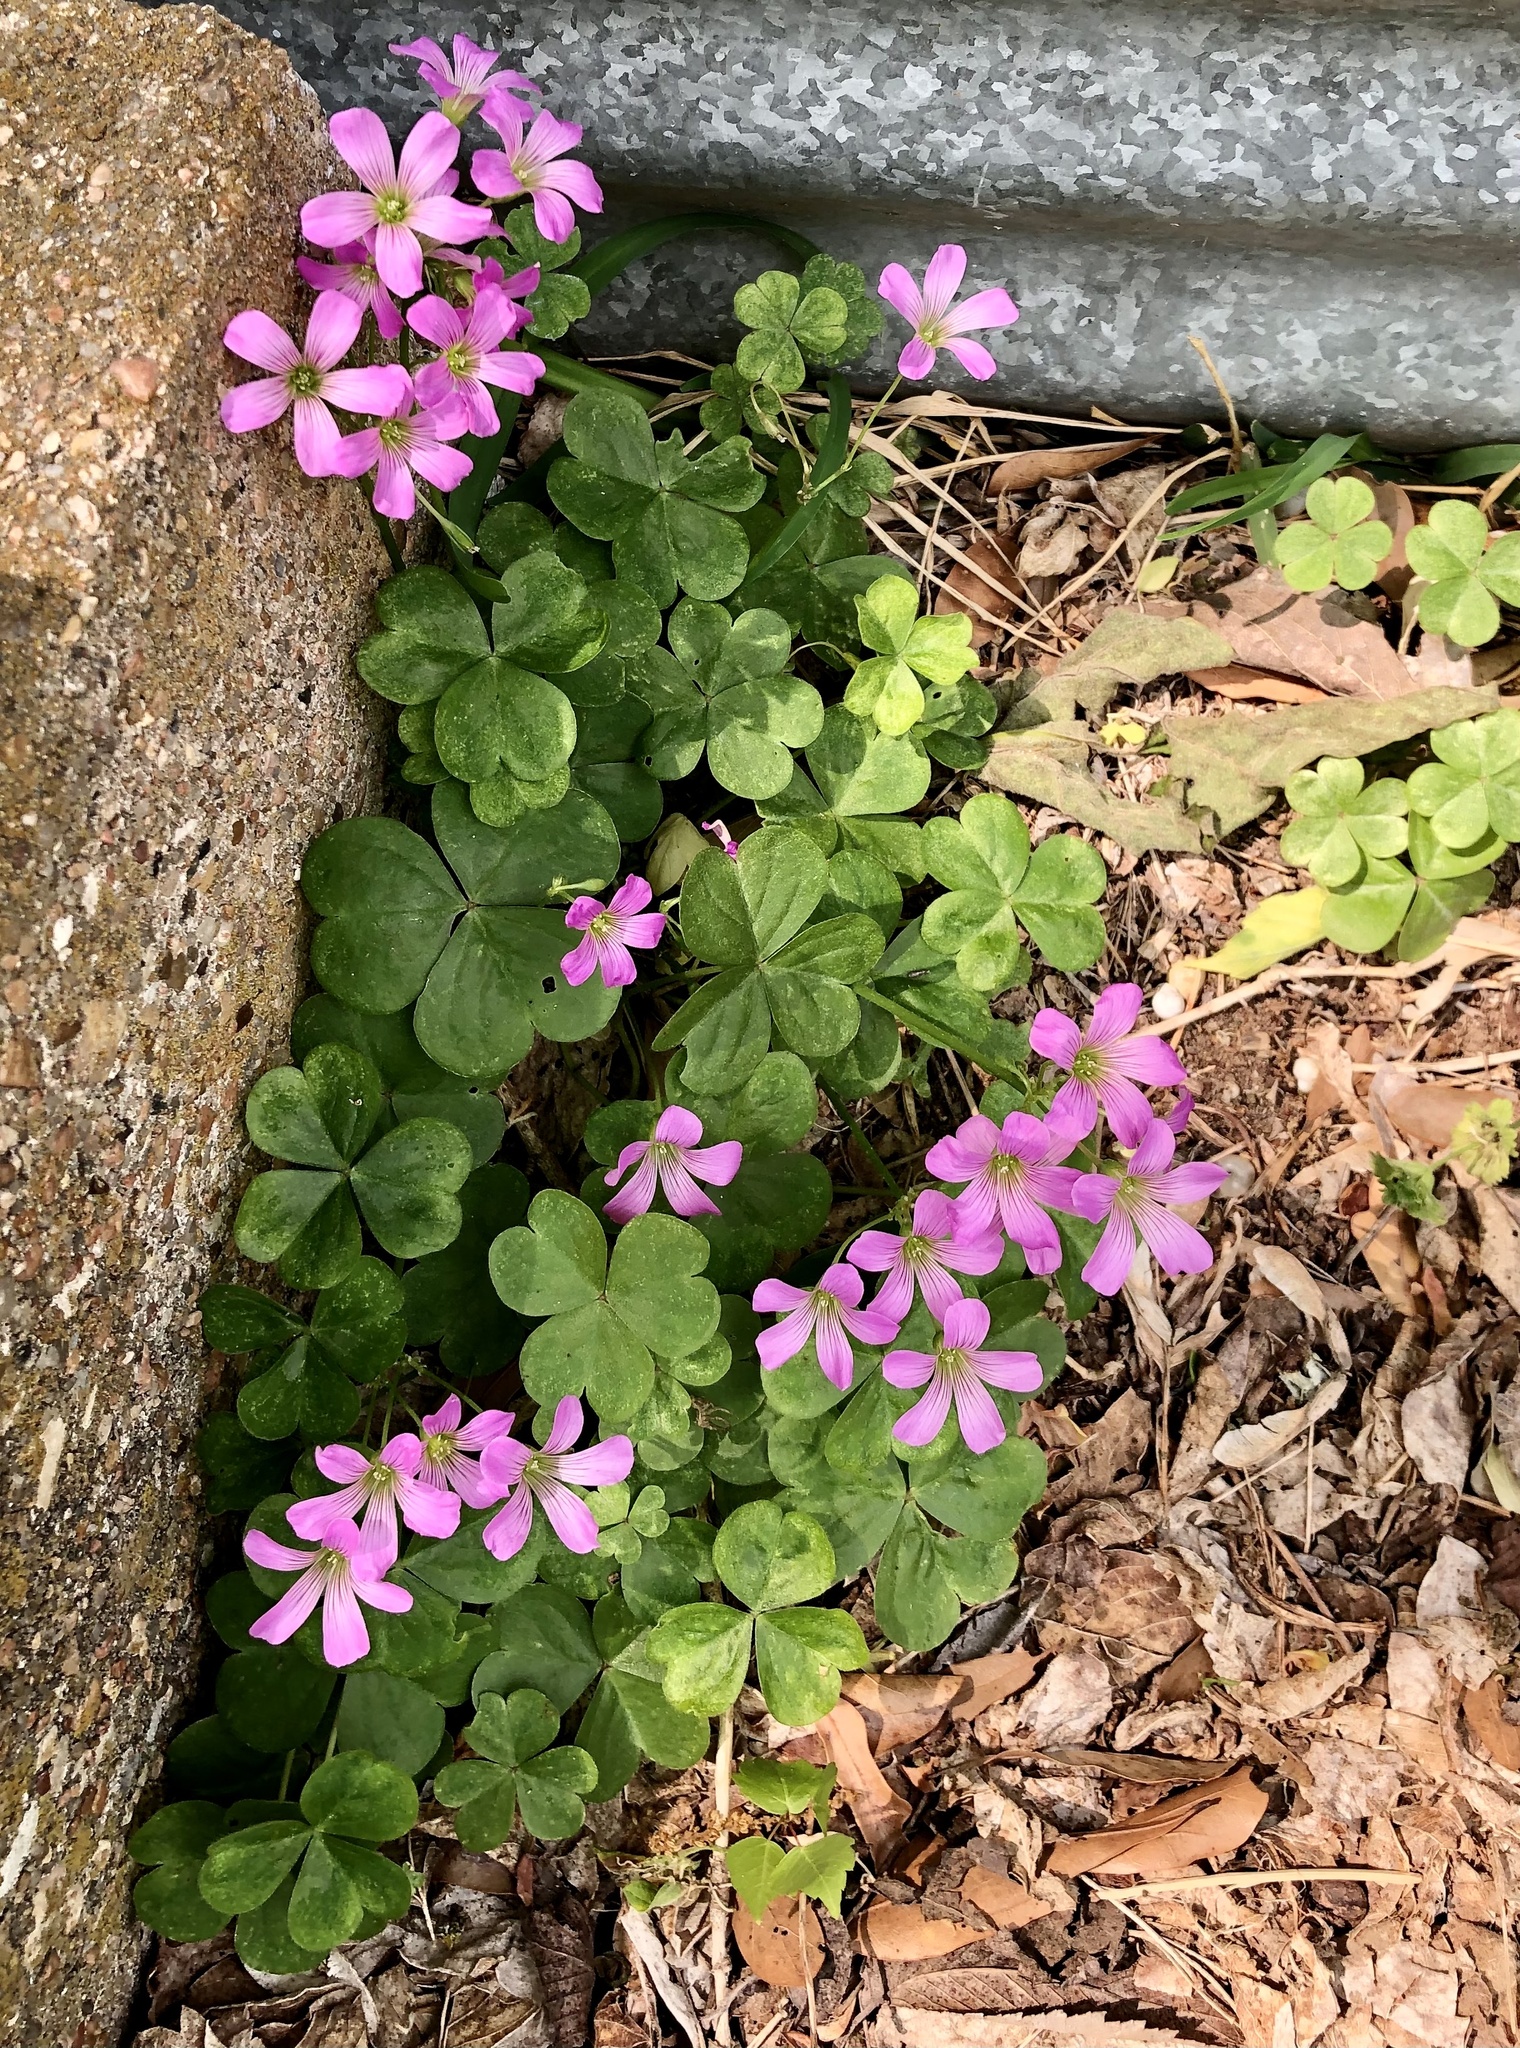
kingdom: Plantae
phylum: Tracheophyta
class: Magnoliopsida
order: Oxalidales
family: Oxalidaceae
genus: Oxalis
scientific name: Oxalis debilis
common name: Large-flowered pink-sorrel
